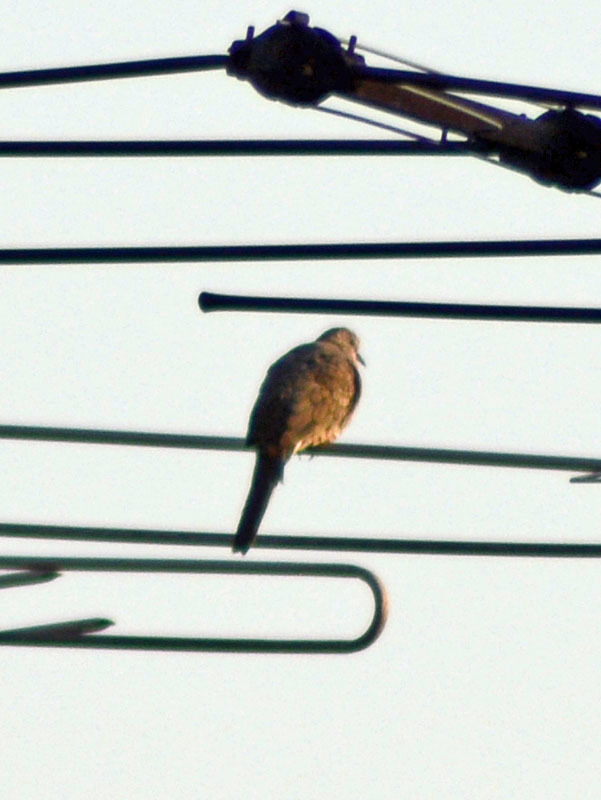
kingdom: Animalia
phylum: Chordata
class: Aves
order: Columbiformes
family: Columbidae
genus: Columbina
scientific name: Columbina inca
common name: Inca dove
